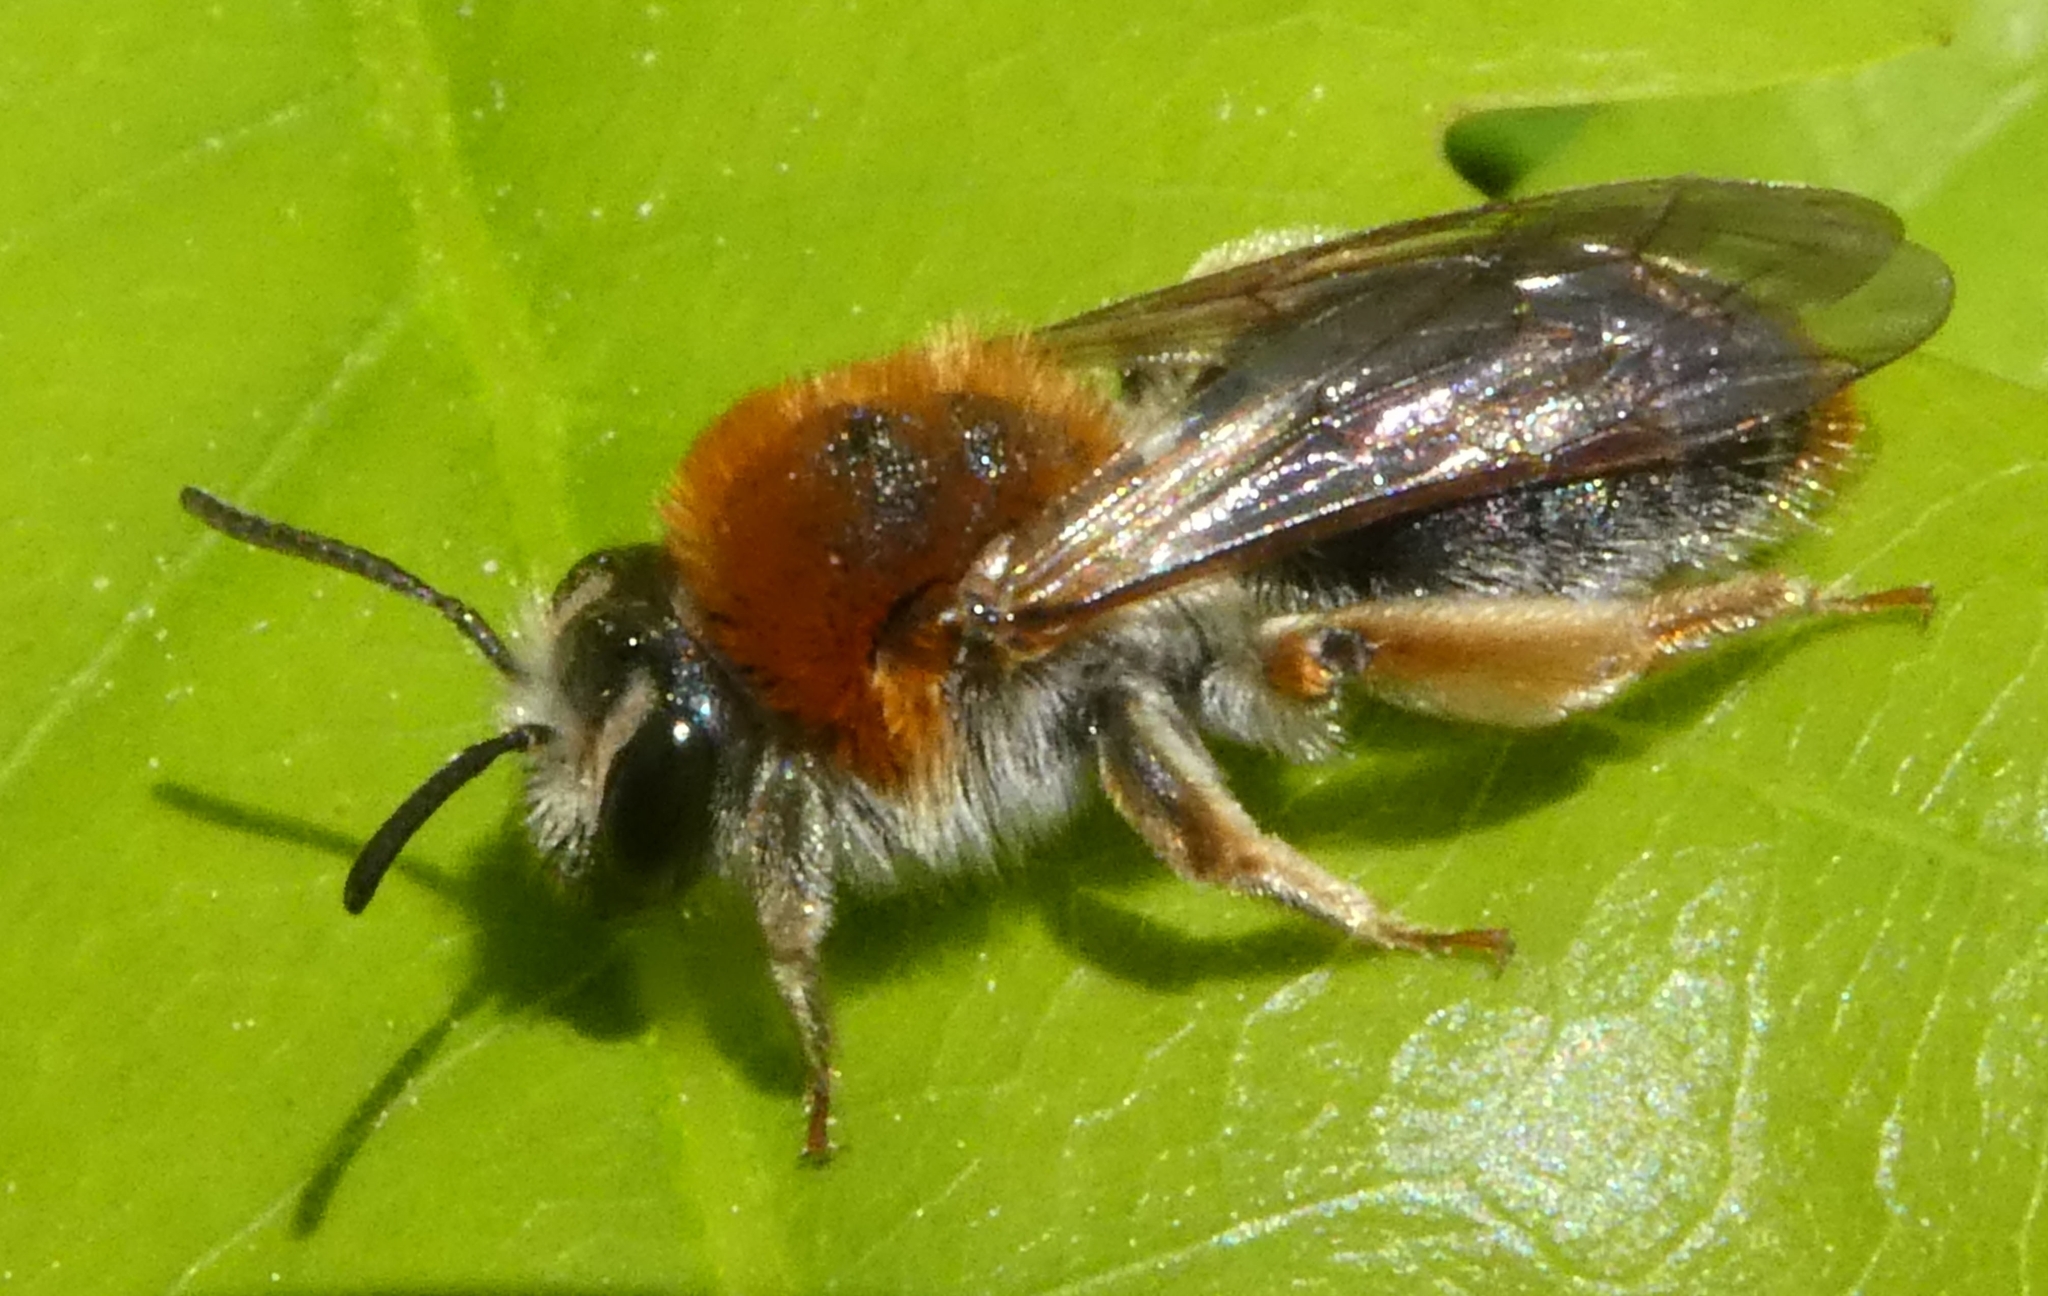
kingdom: Animalia
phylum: Arthropoda
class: Insecta
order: Hymenoptera
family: Andrenidae
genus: Andrena
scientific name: Andrena haemorrhoa
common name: Early mining bee
